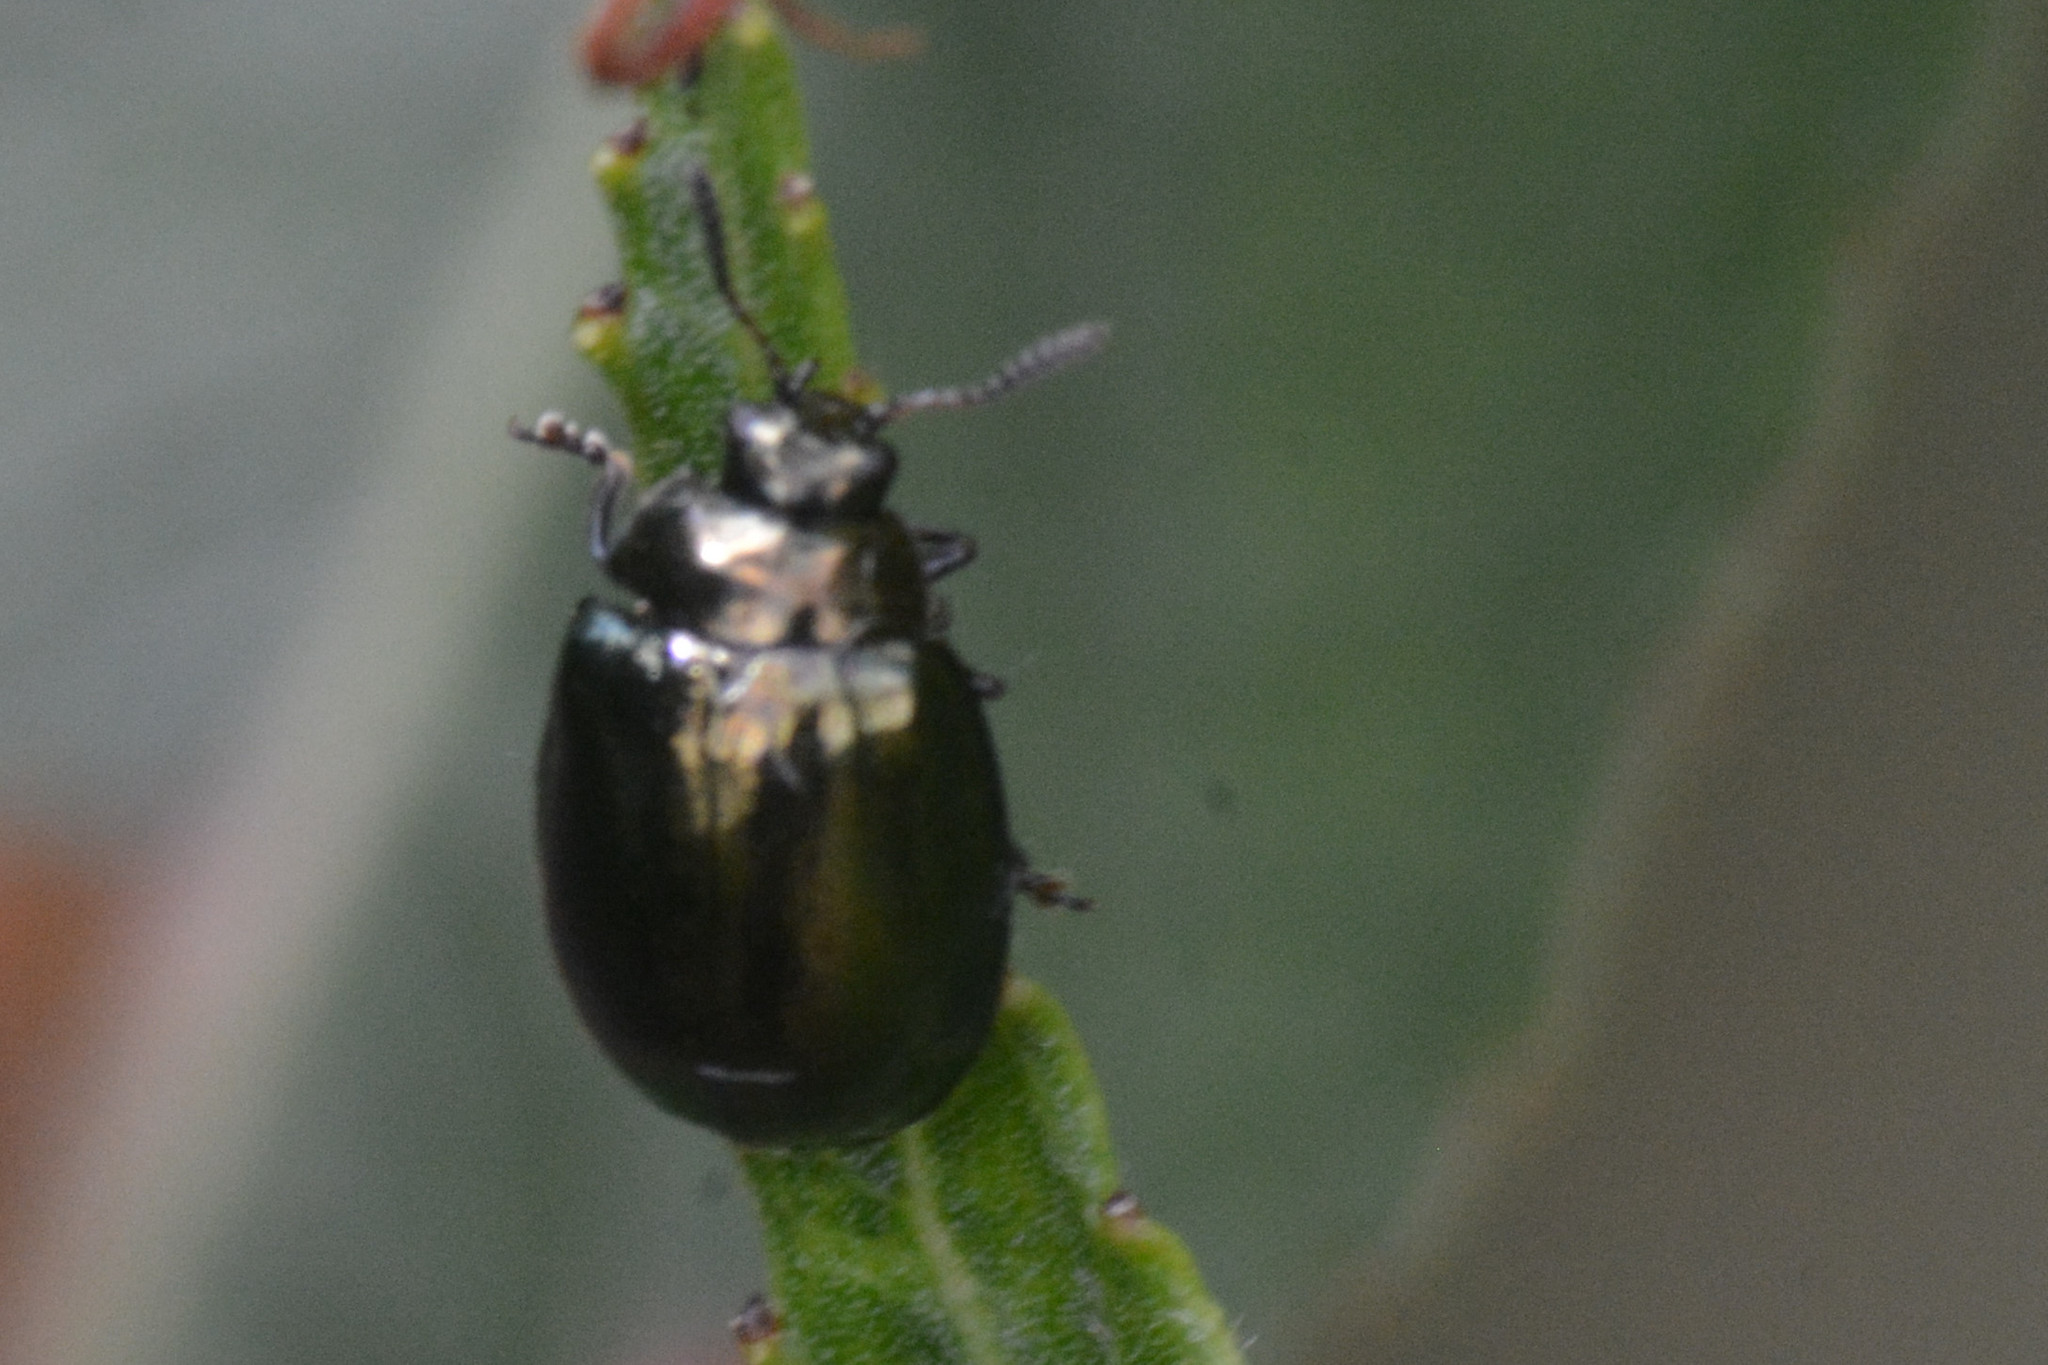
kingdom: Animalia
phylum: Arthropoda
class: Insecta
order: Coleoptera
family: Chrysomelidae
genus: Plagiodera
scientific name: Plagiodera versicolora
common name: Imported willow leaf beetle
